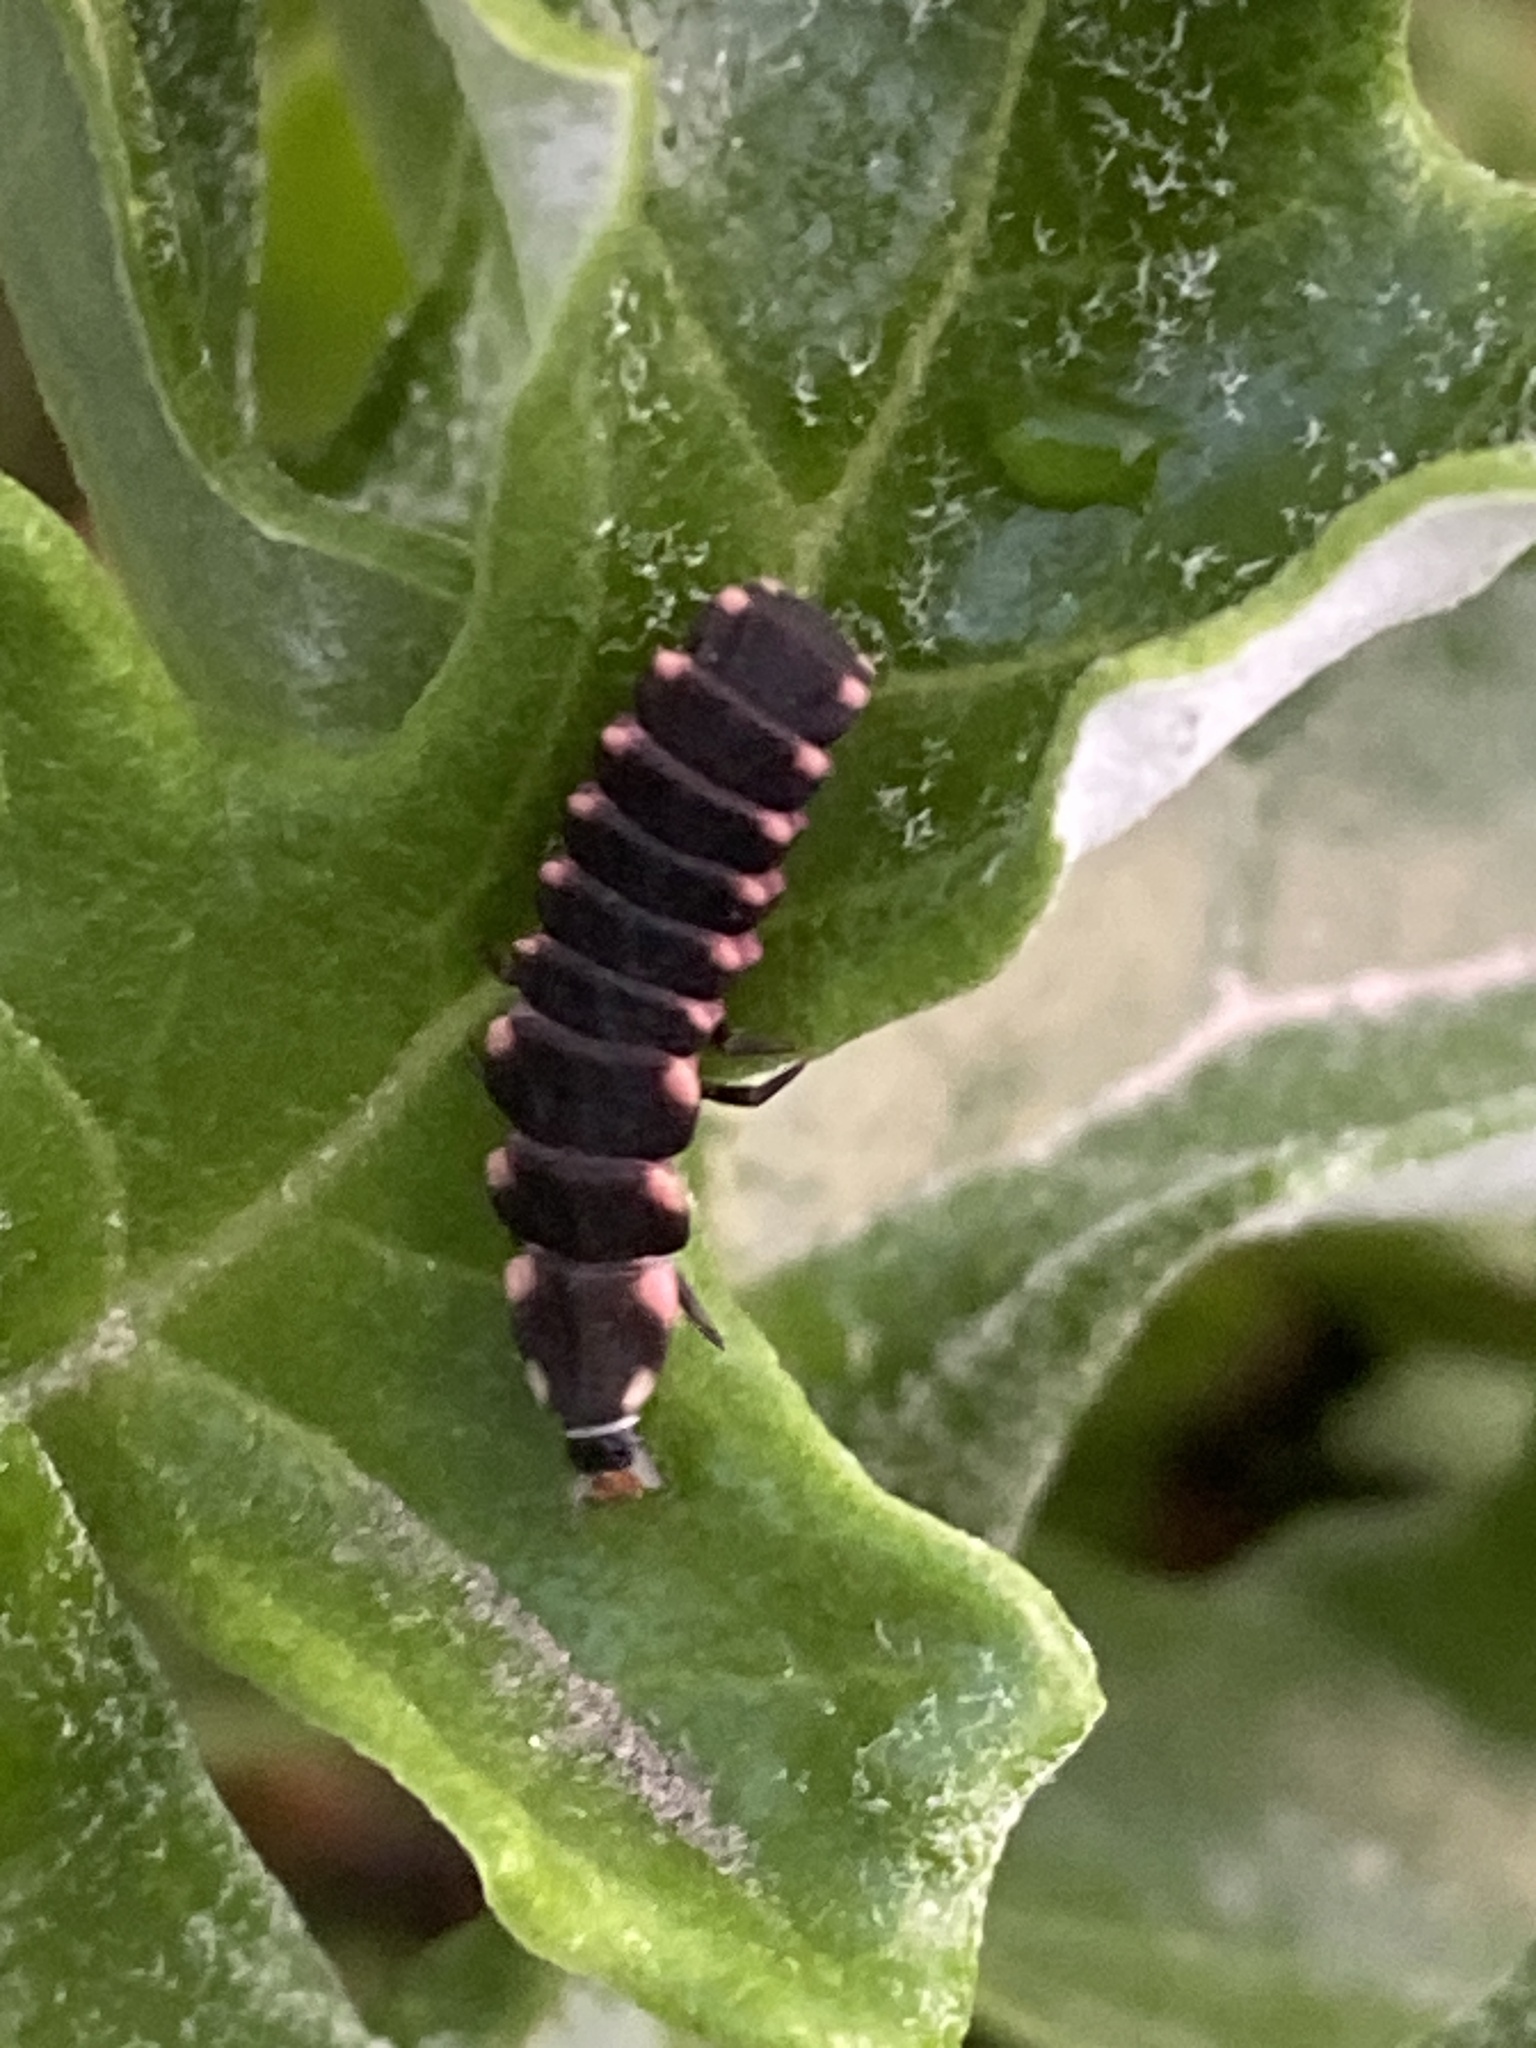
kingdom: Animalia
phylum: Arthropoda
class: Insecta
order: Coleoptera
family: Lampyridae
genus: Lampyris
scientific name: Lampyris pallida
